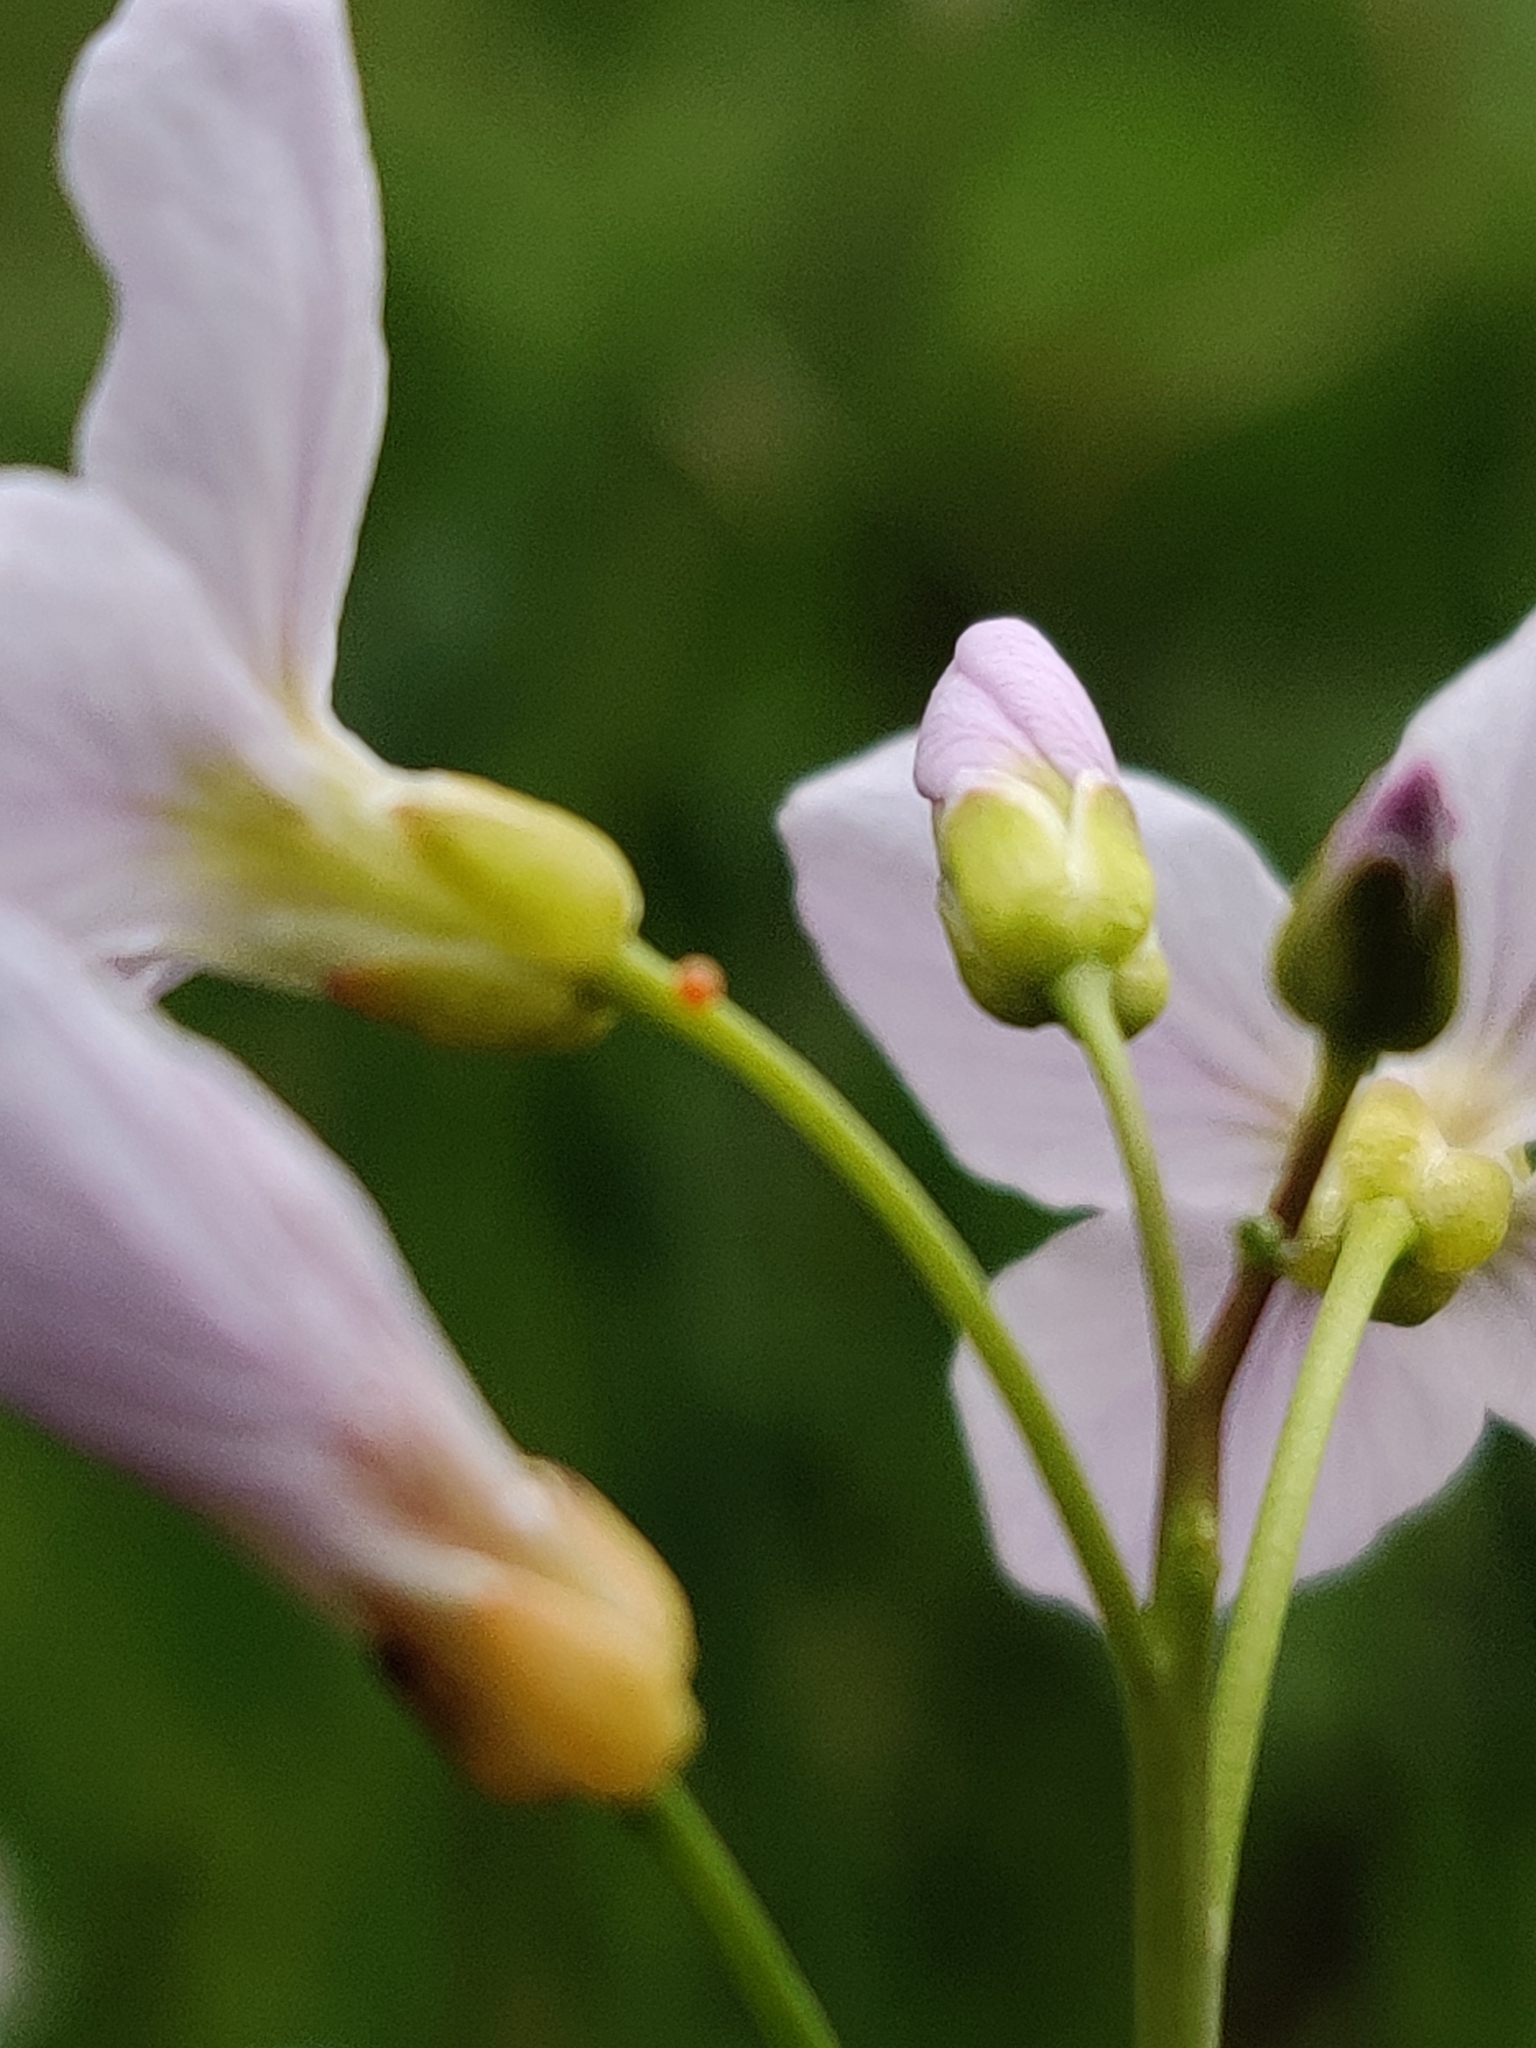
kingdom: Animalia
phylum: Arthropoda
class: Insecta
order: Lepidoptera
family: Pieridae
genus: Anthocharis
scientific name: Anthocharis cardamines
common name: Orange-tip
